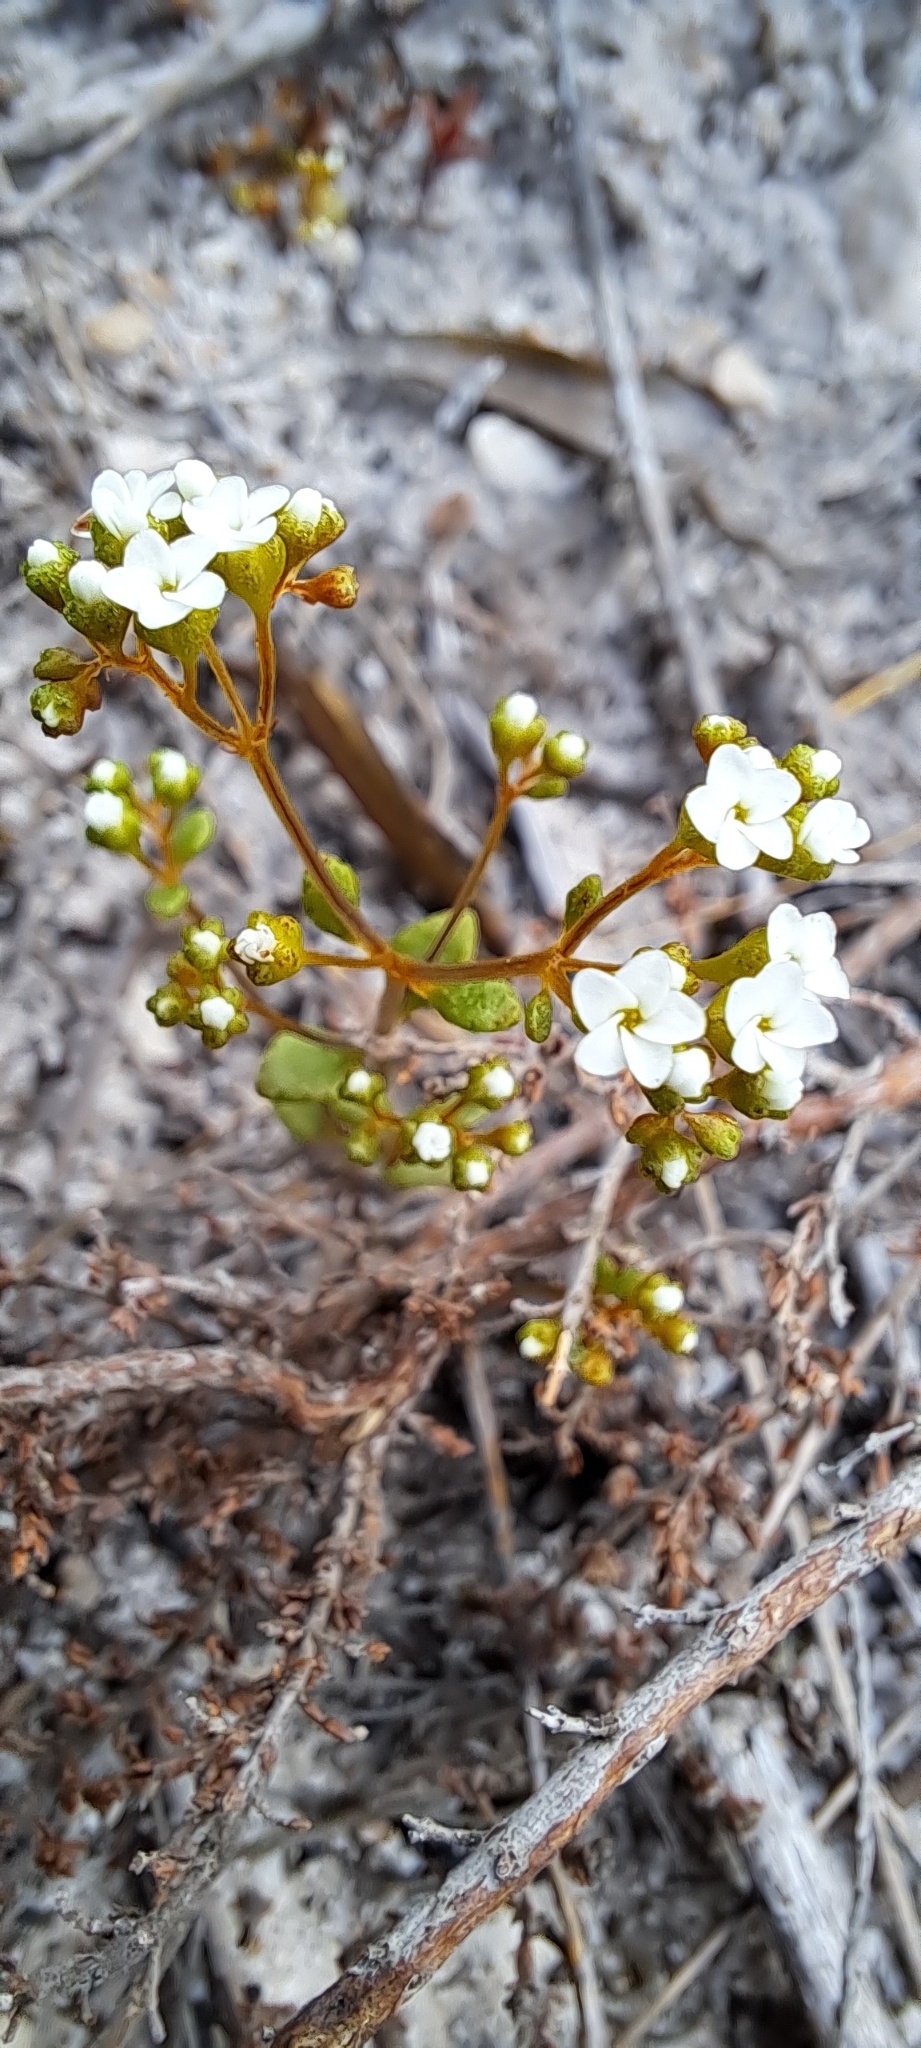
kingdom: Plantae
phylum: Tracheophyta
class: Magnoliopsida
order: Saxifragales
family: Crassulaceae
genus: Crassula
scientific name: Crassula filiformis
